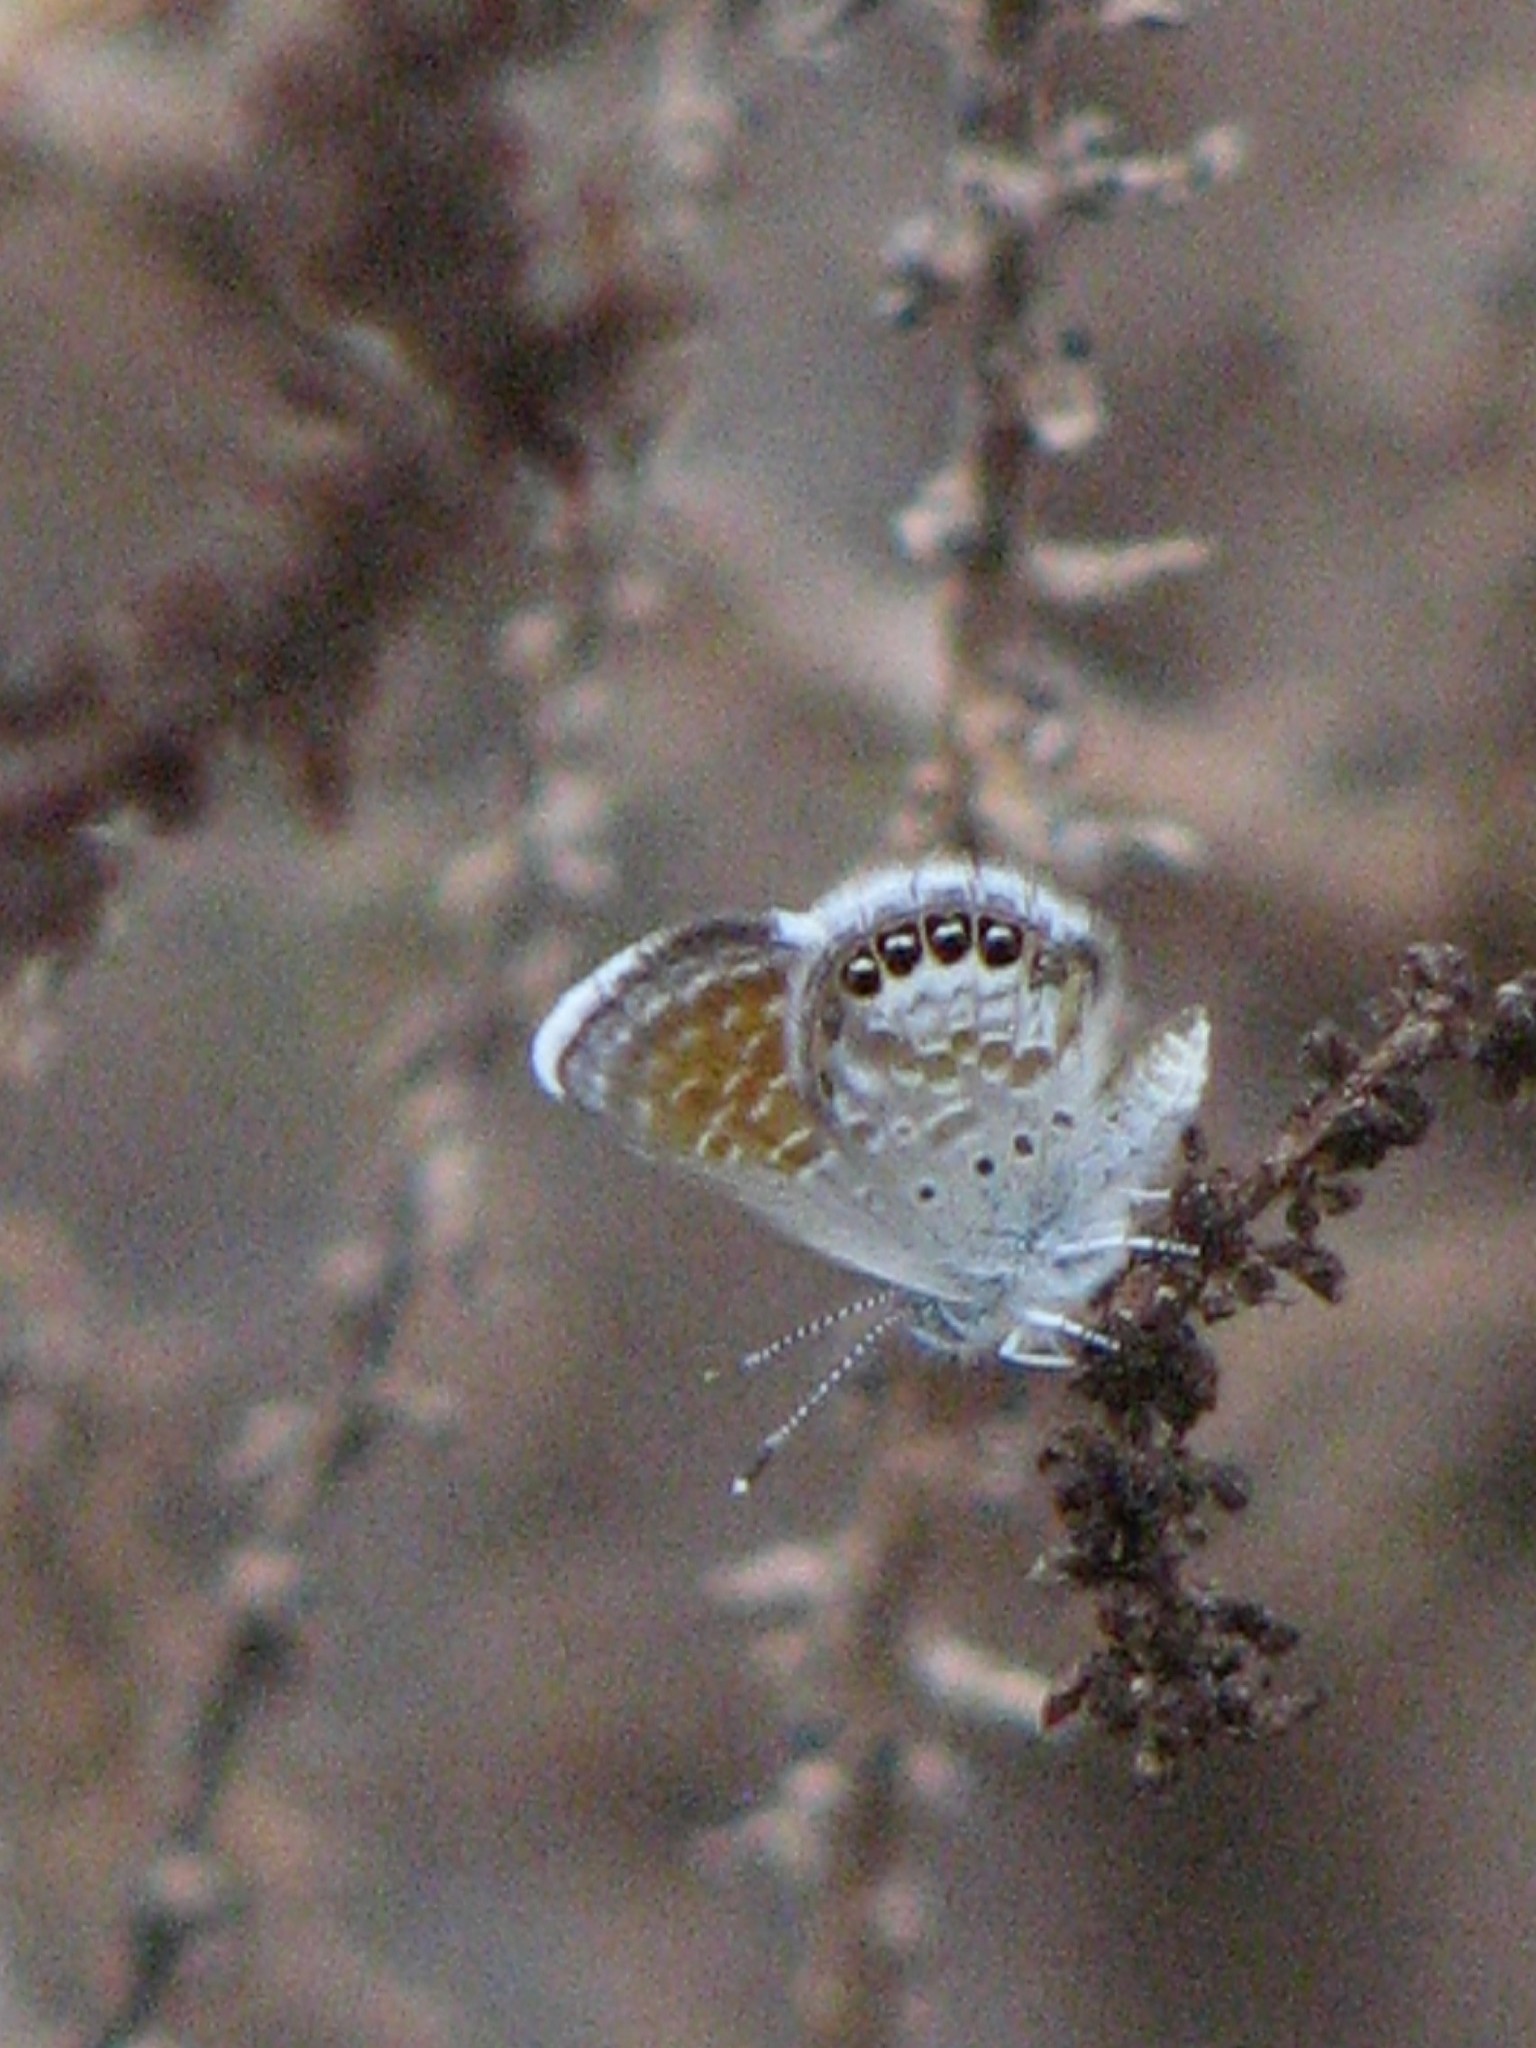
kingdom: Animalia
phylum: Arthropoda
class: Insecta
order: Lepidoptera
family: Lycaenidae
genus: Brephidium
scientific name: Brephidium exilis
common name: Pygmy blue
